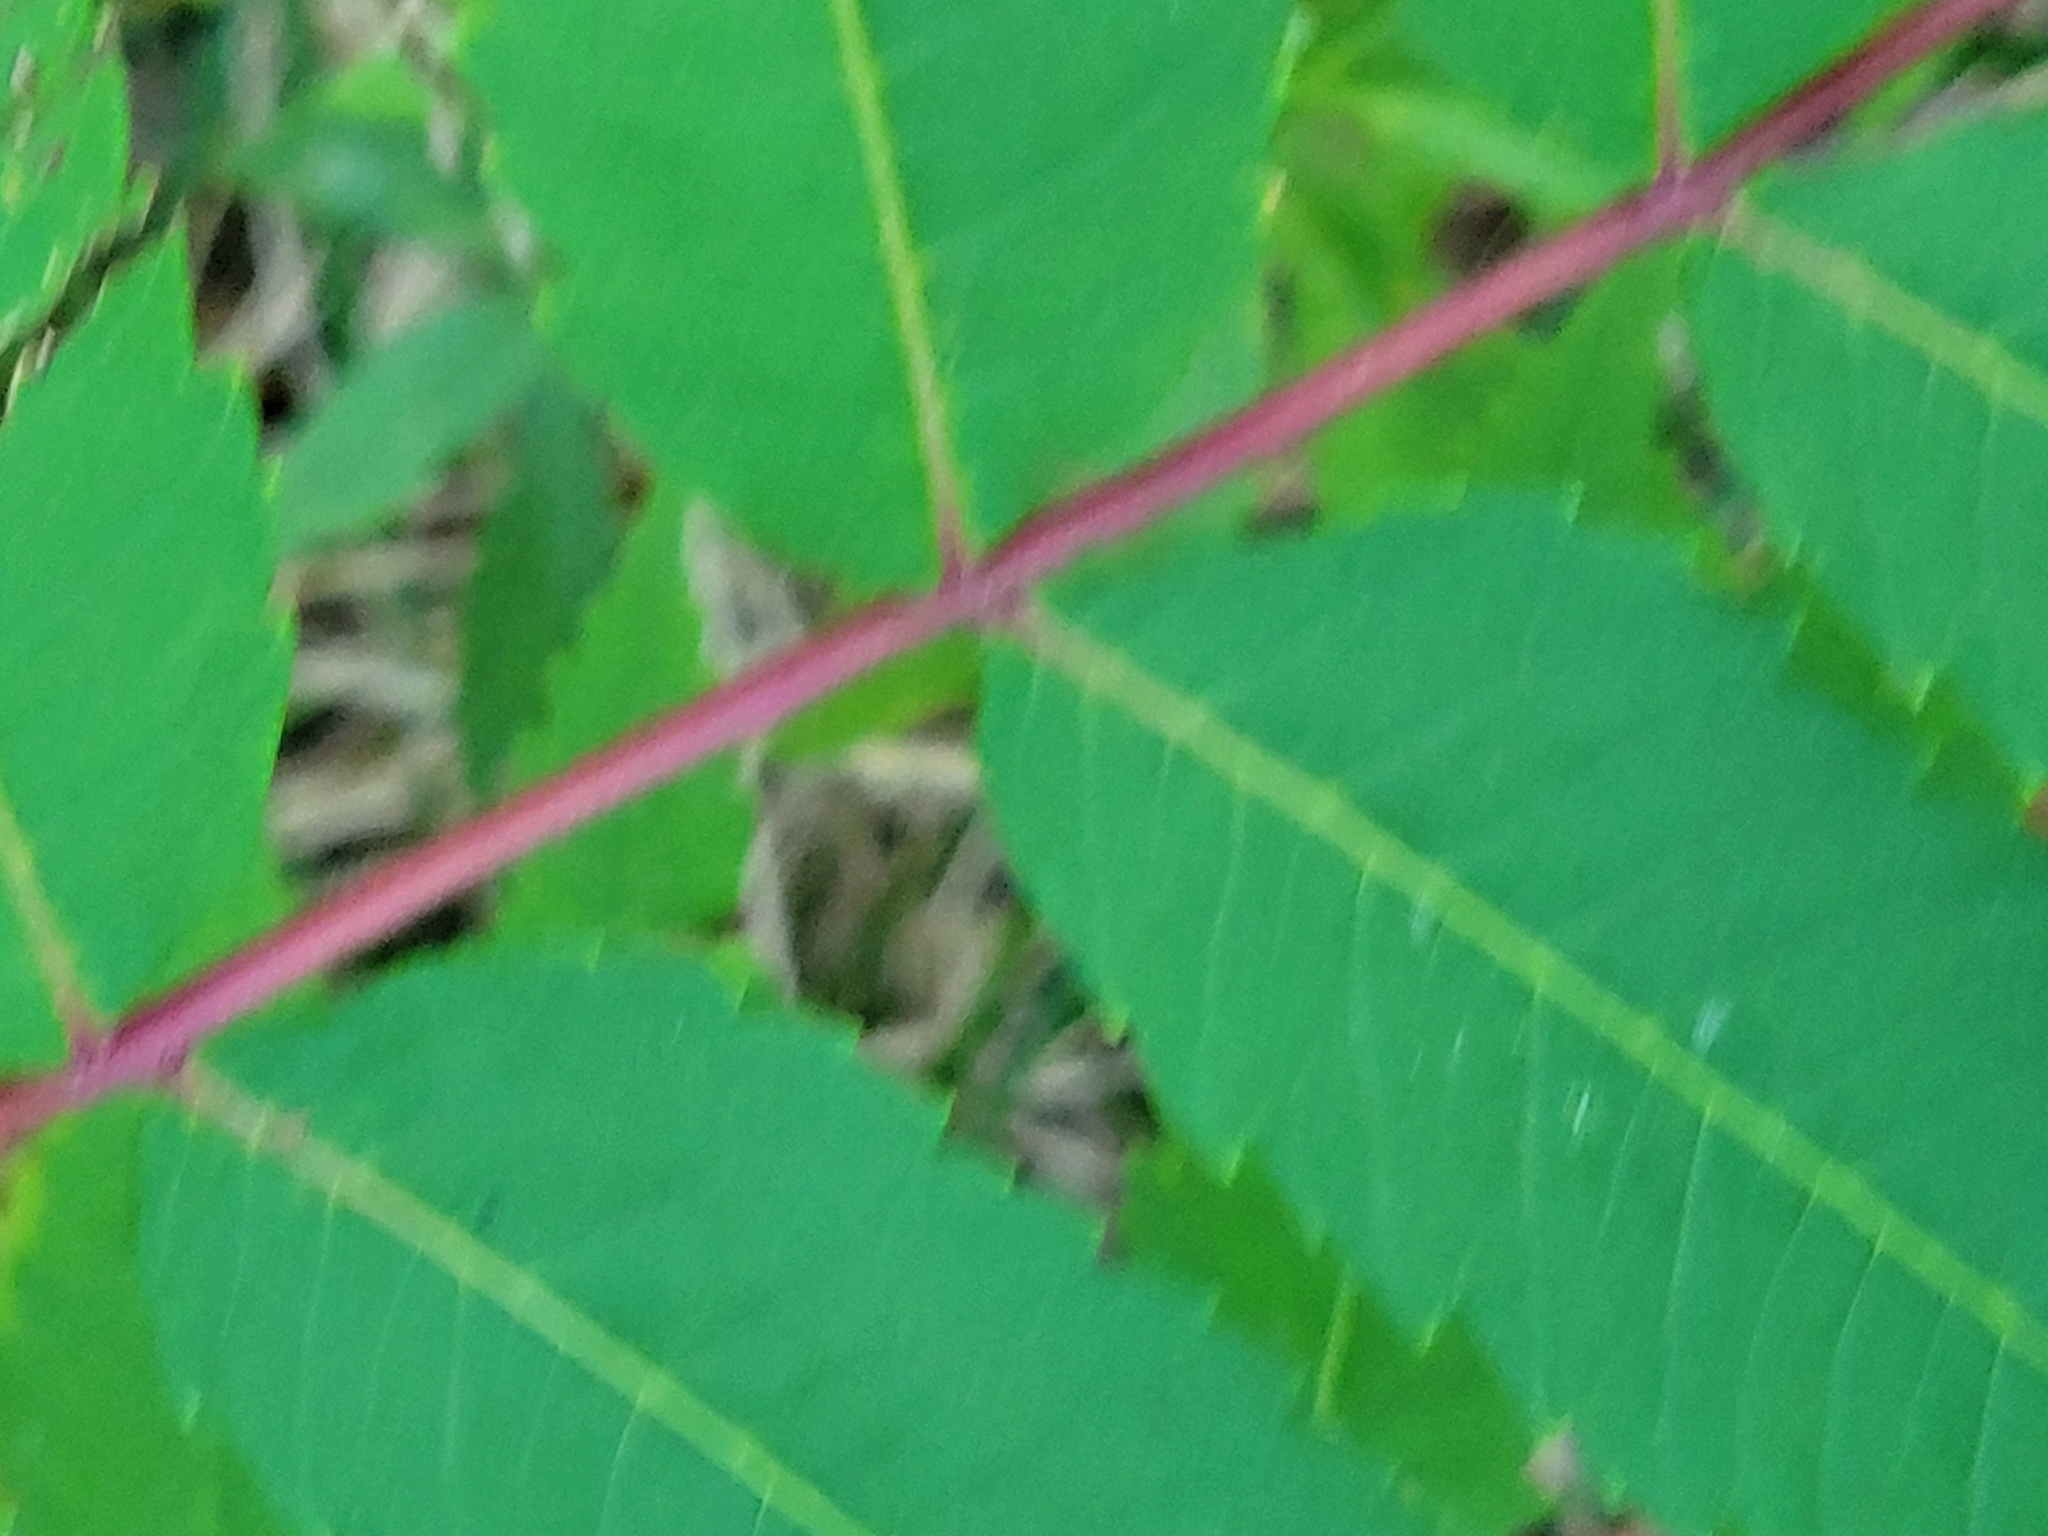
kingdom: Plantae
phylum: Tracheophyta
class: Magnoliopsida
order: Sapindales
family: Anacardiaceae
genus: Rhus
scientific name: Rhus typhina
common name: Staghorn sumac
